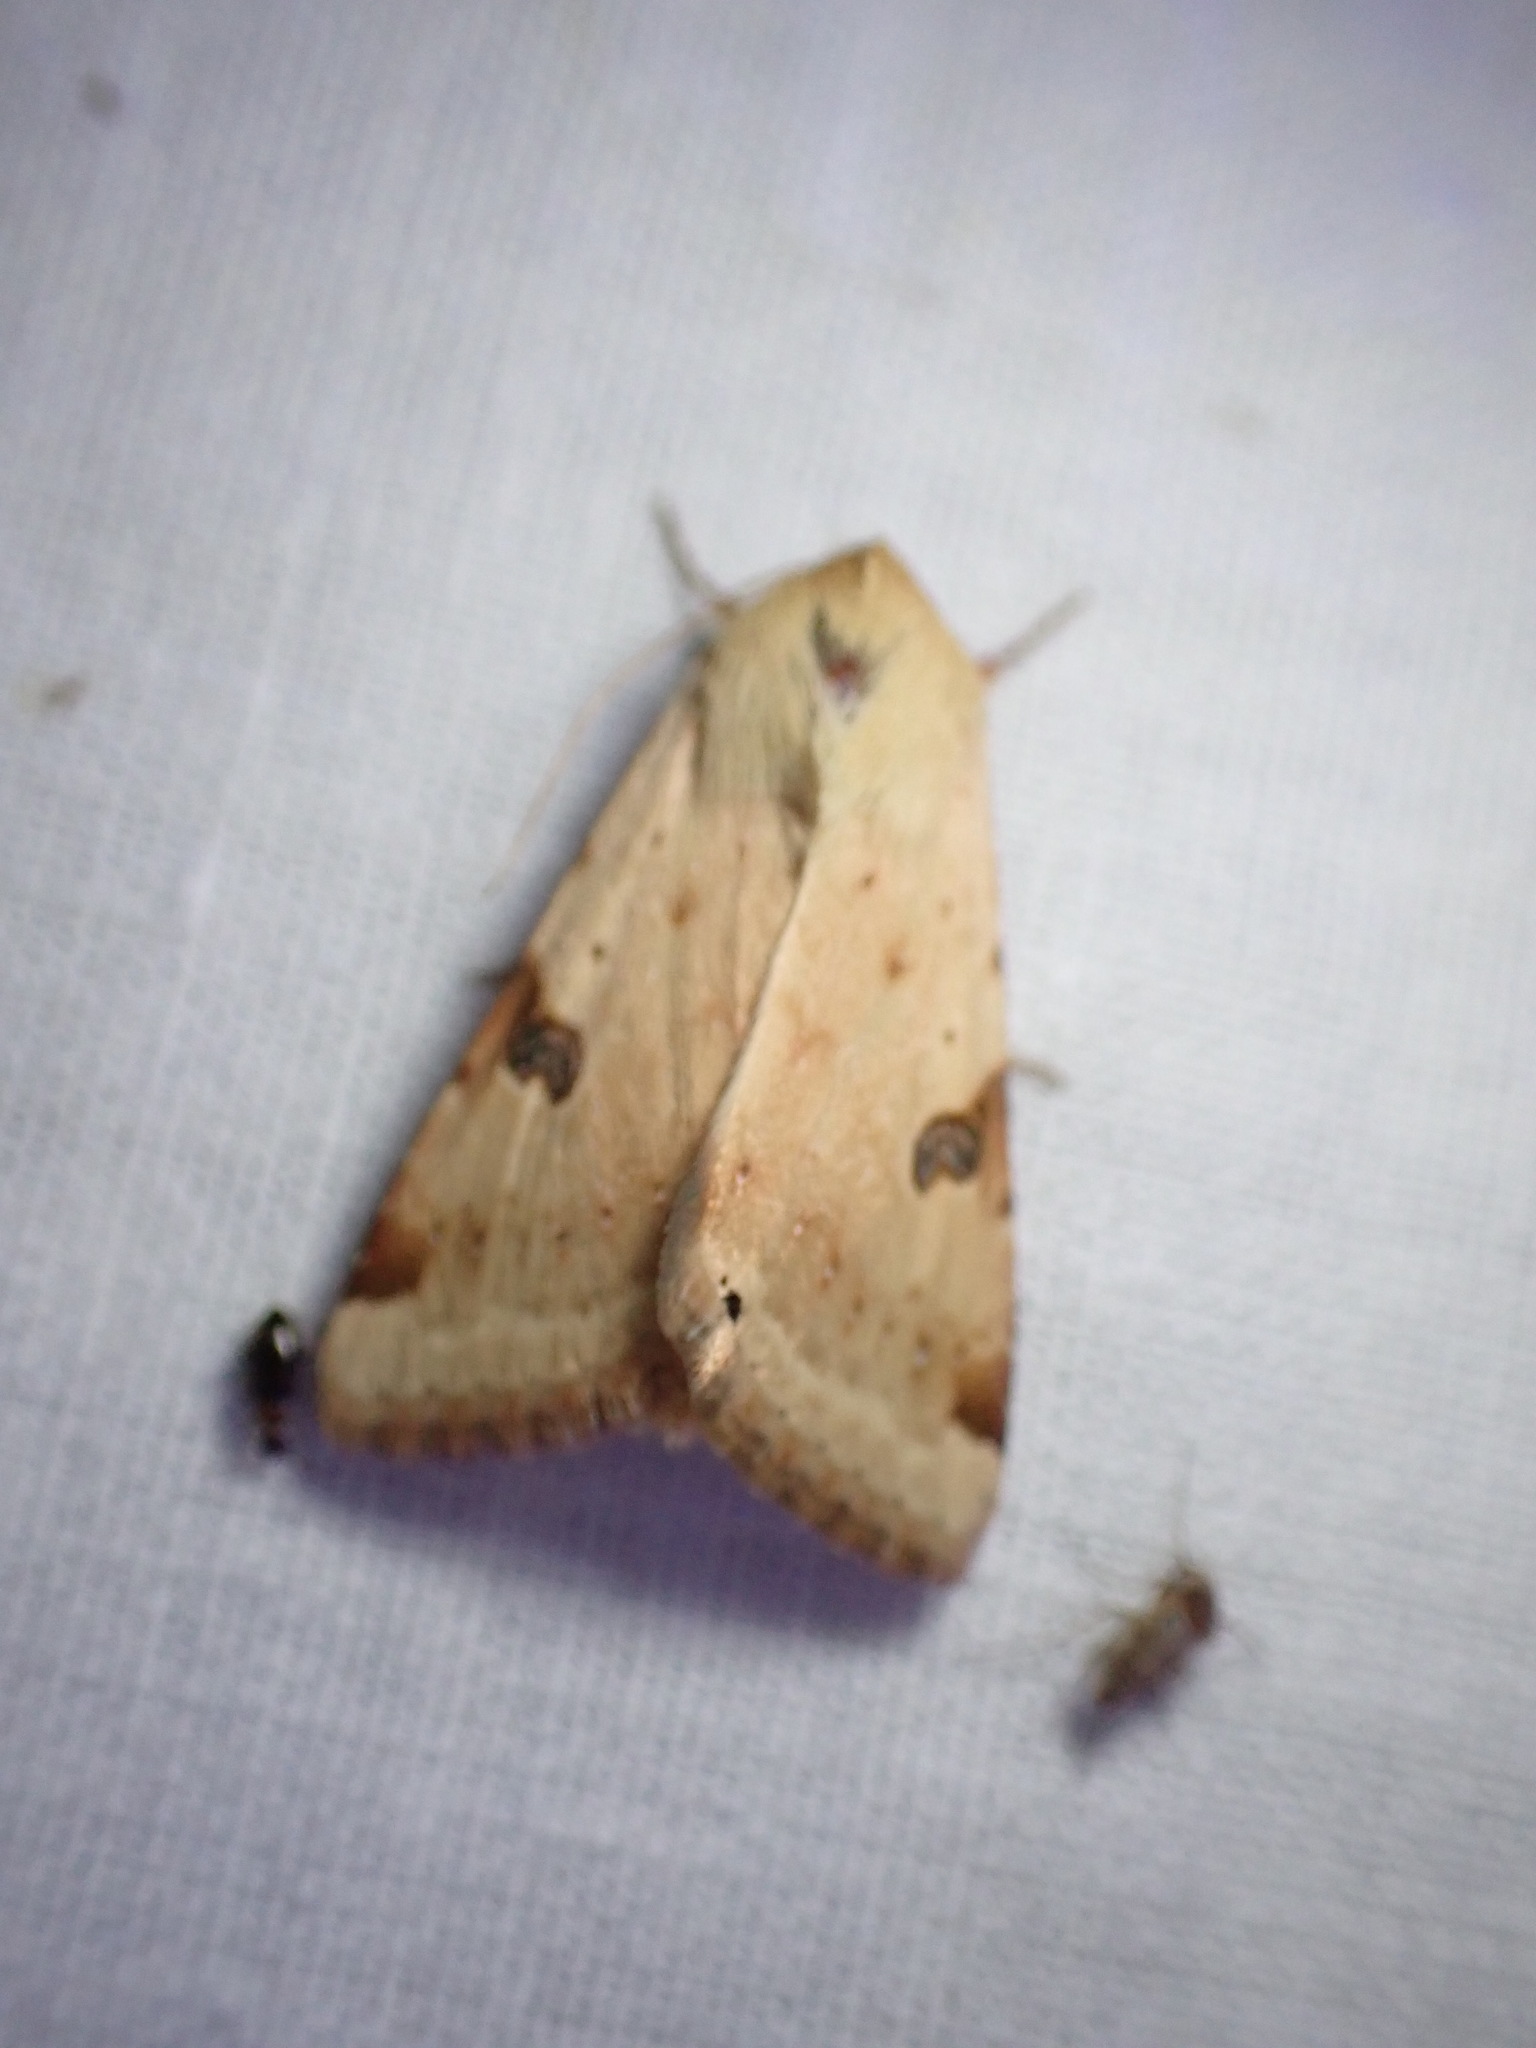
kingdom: Animalia
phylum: Arthropoda
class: Insecta
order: Lepidoptera
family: Noctuidae
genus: Heliothis
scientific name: Heliothis peltigera
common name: Bordered straw
